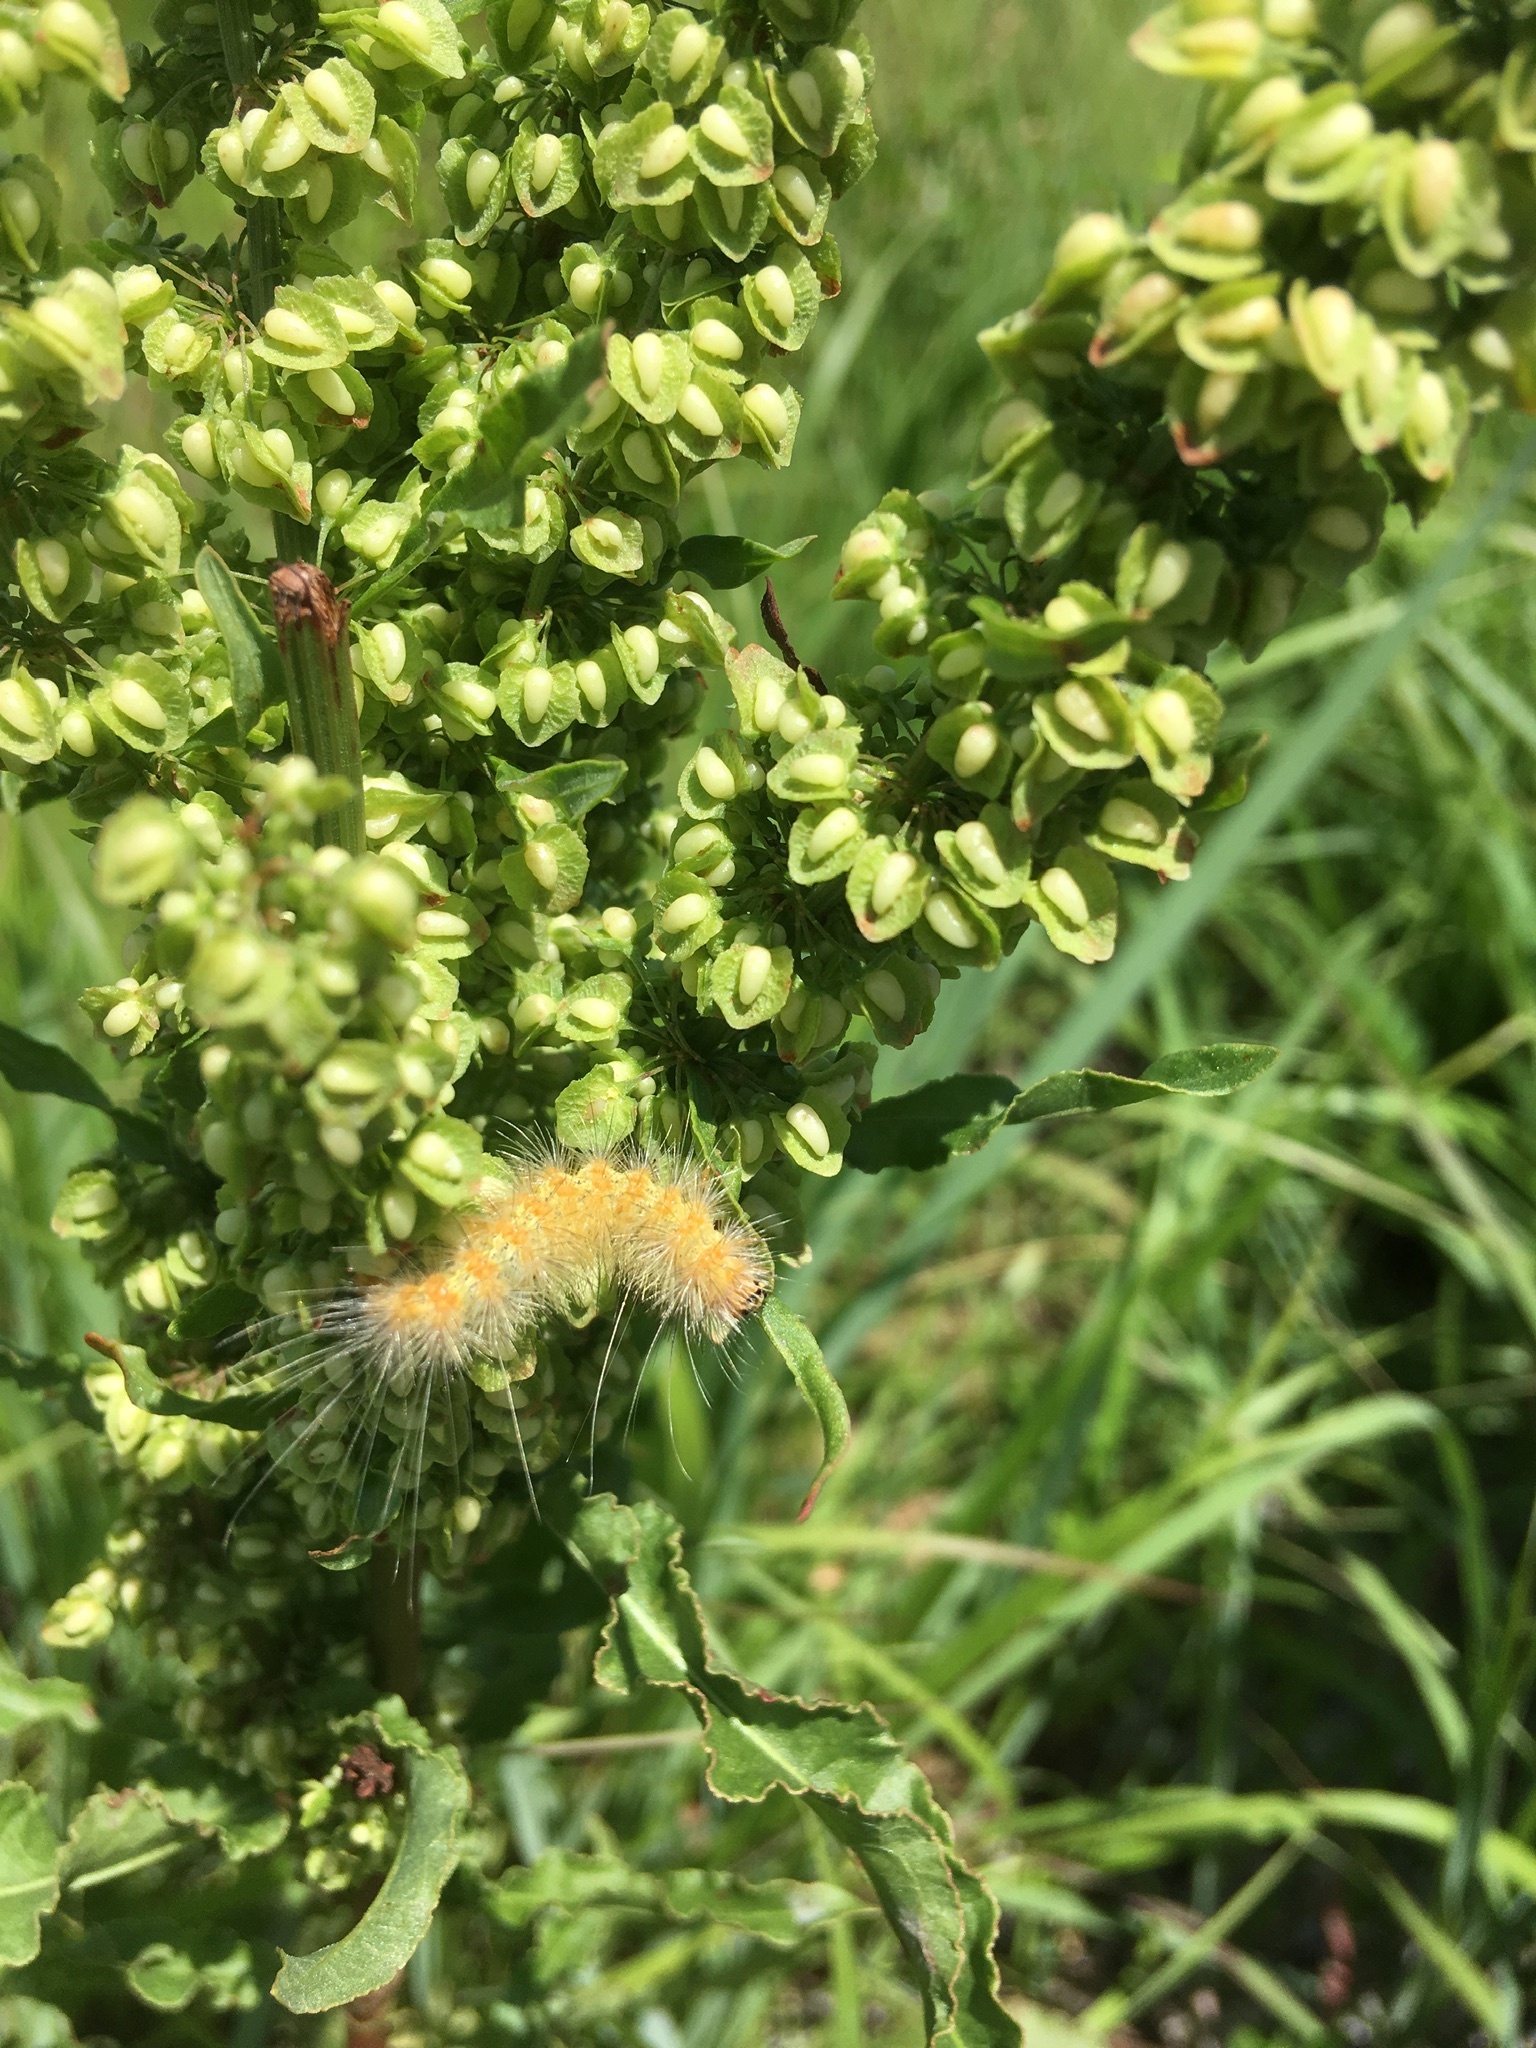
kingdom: Animalia
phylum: Arthropoda
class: Insecta
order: Lepidoptera
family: Erebidae
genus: Estigmene
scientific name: Estigmene acrea
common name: Salt marsh moth
